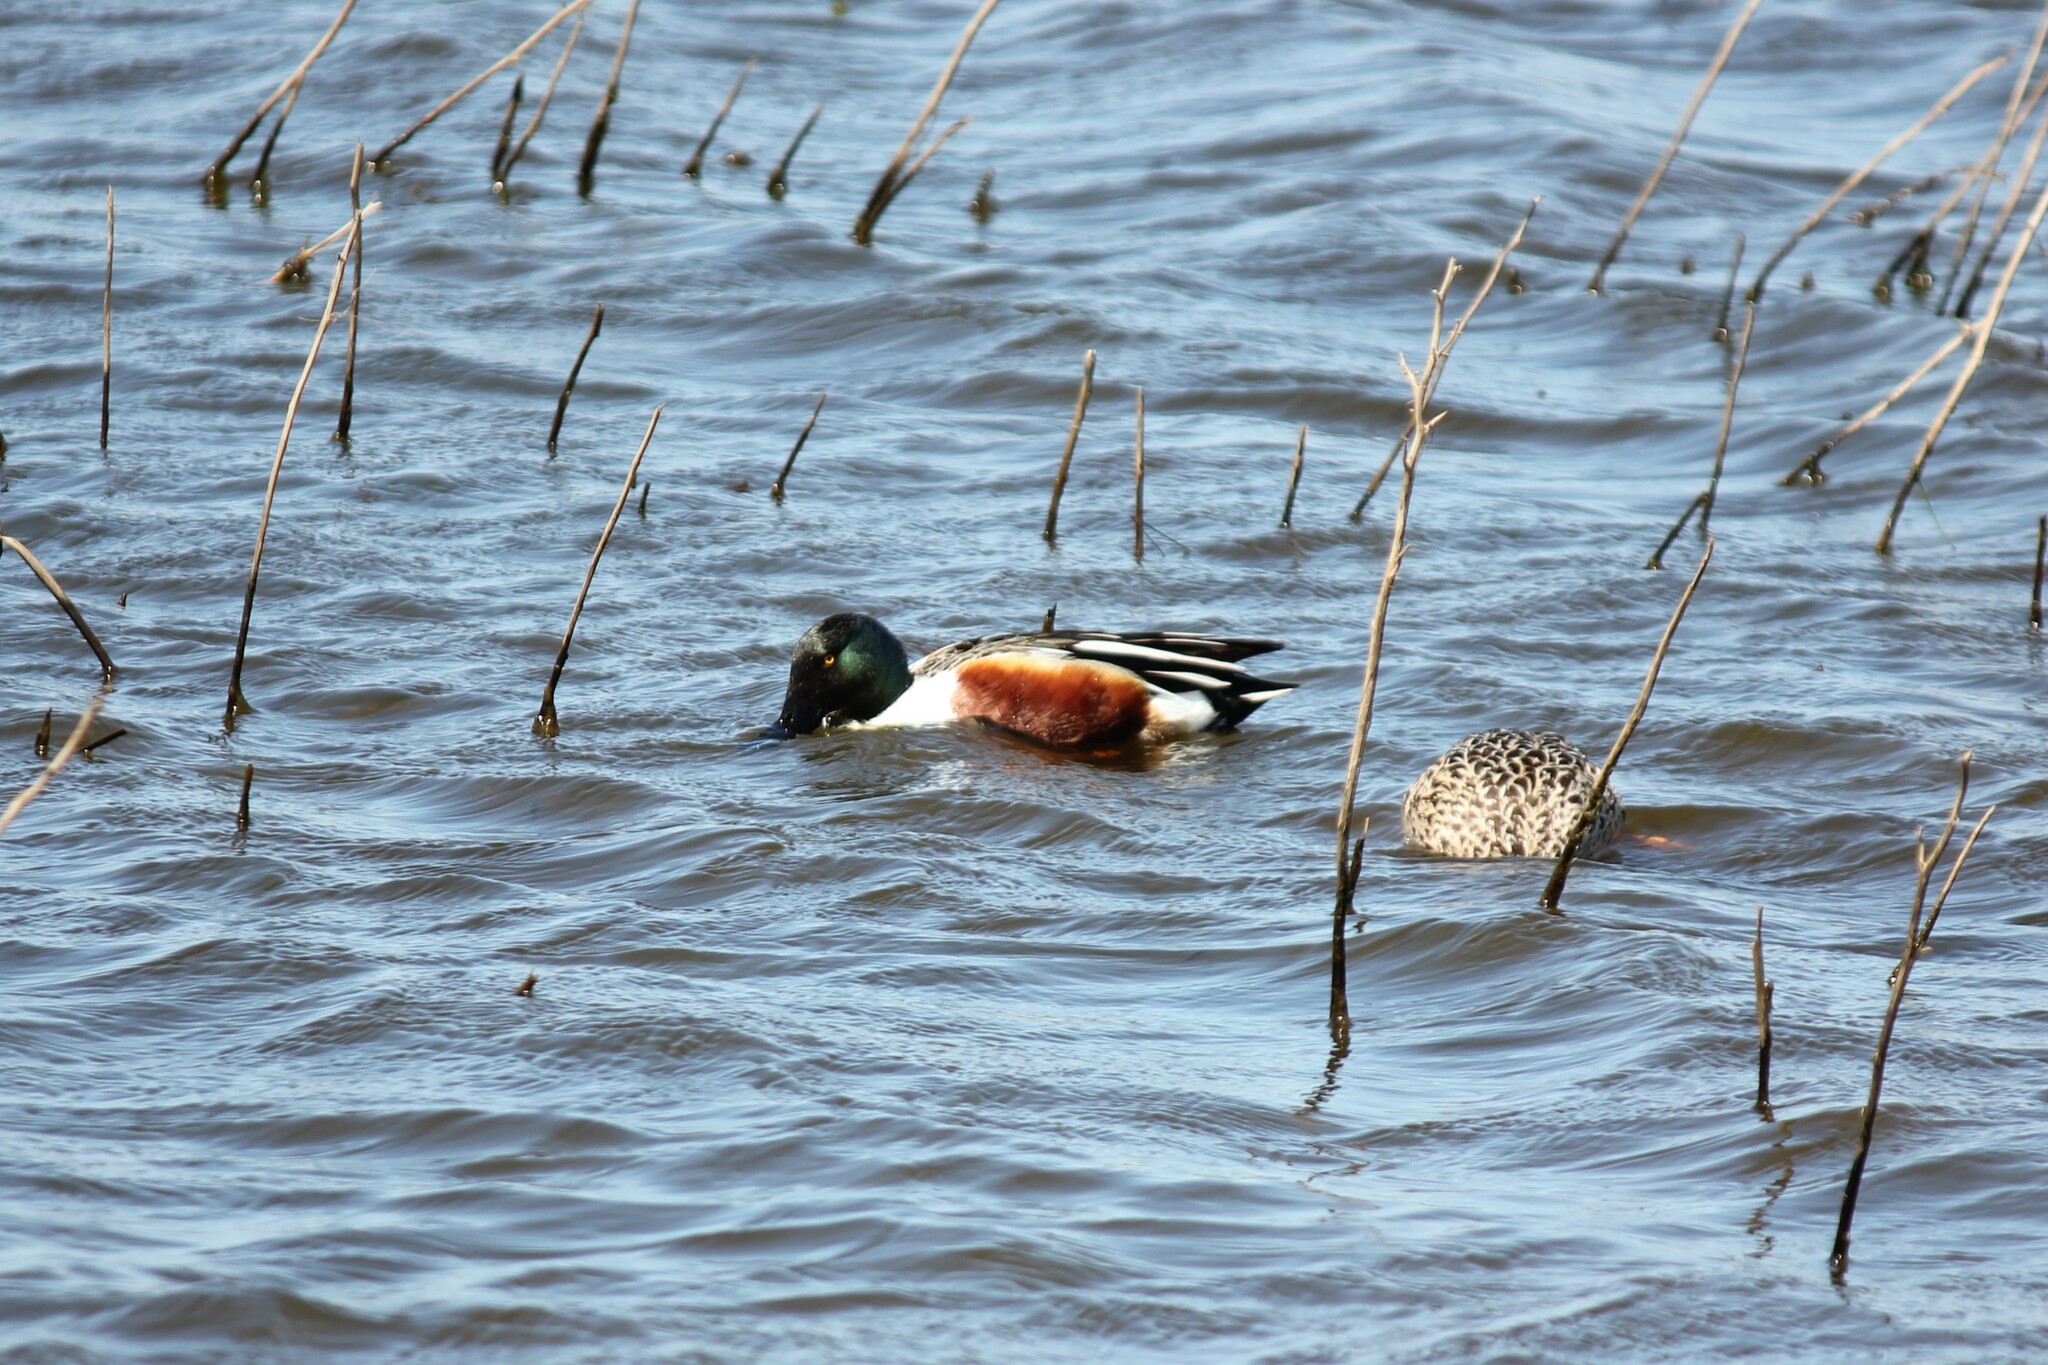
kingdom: Animalia
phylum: Chordata
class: Aves
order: Anseriformes
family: Anatidae
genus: Spatula
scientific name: Spatula clypeata
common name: Northern shoveler
